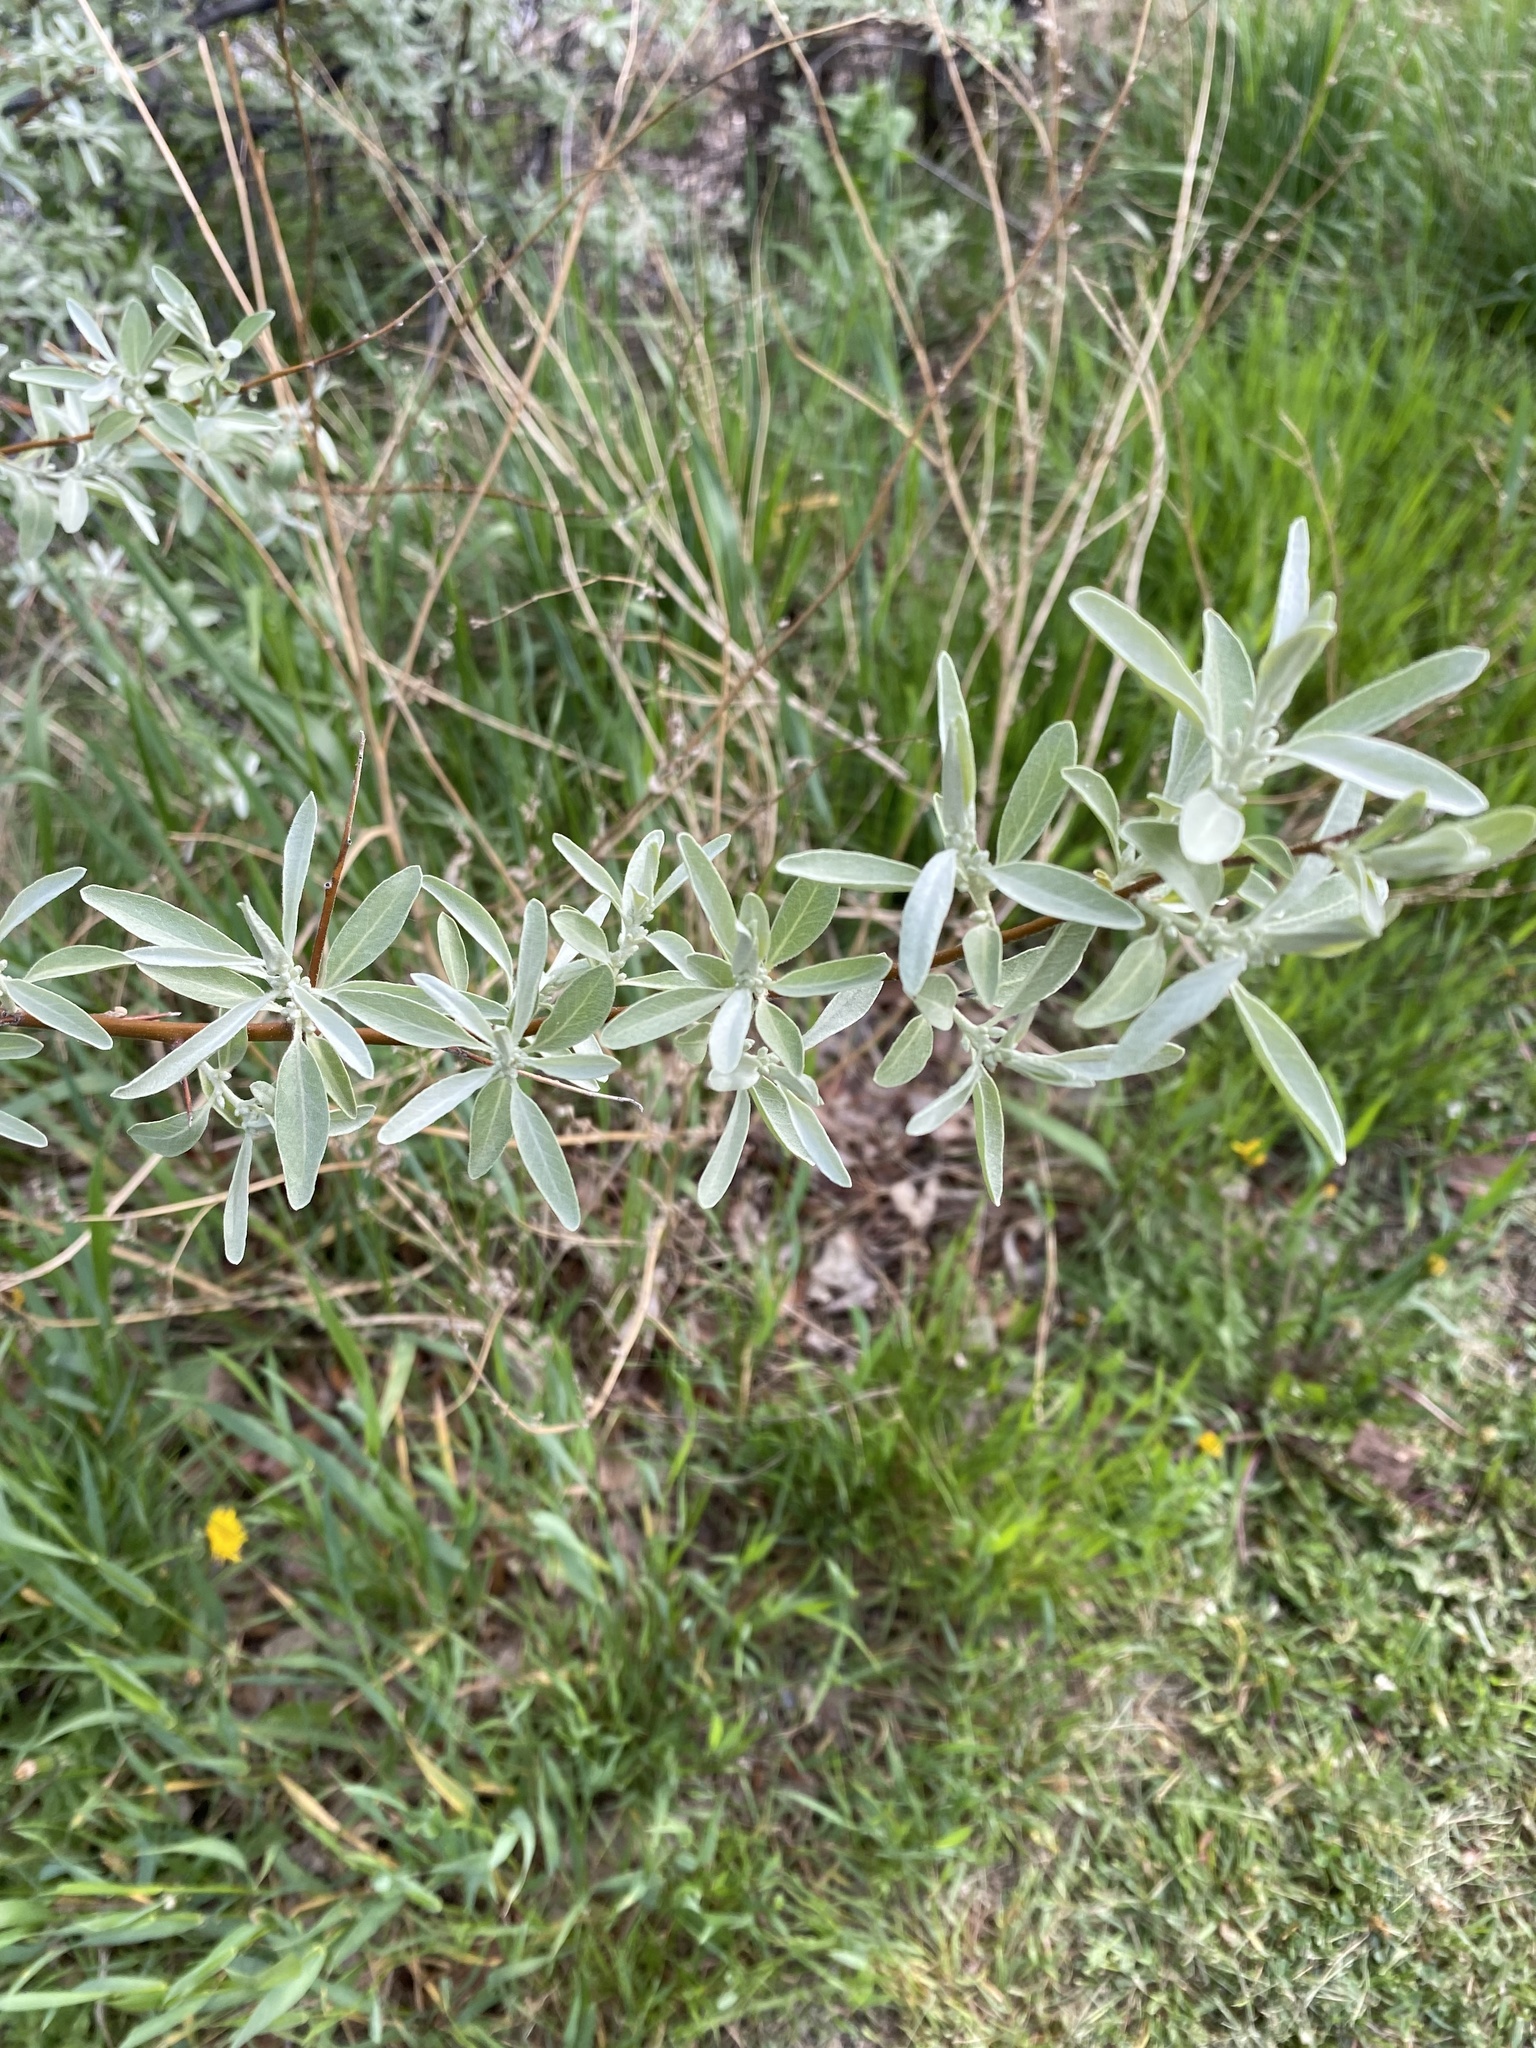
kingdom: Plantae
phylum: Tracheophyta
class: Magnoliopsida
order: Rosales
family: Elaeagnaceae
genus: Elaeagnus
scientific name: Elaeagnus angustifolia
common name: Russian olive
